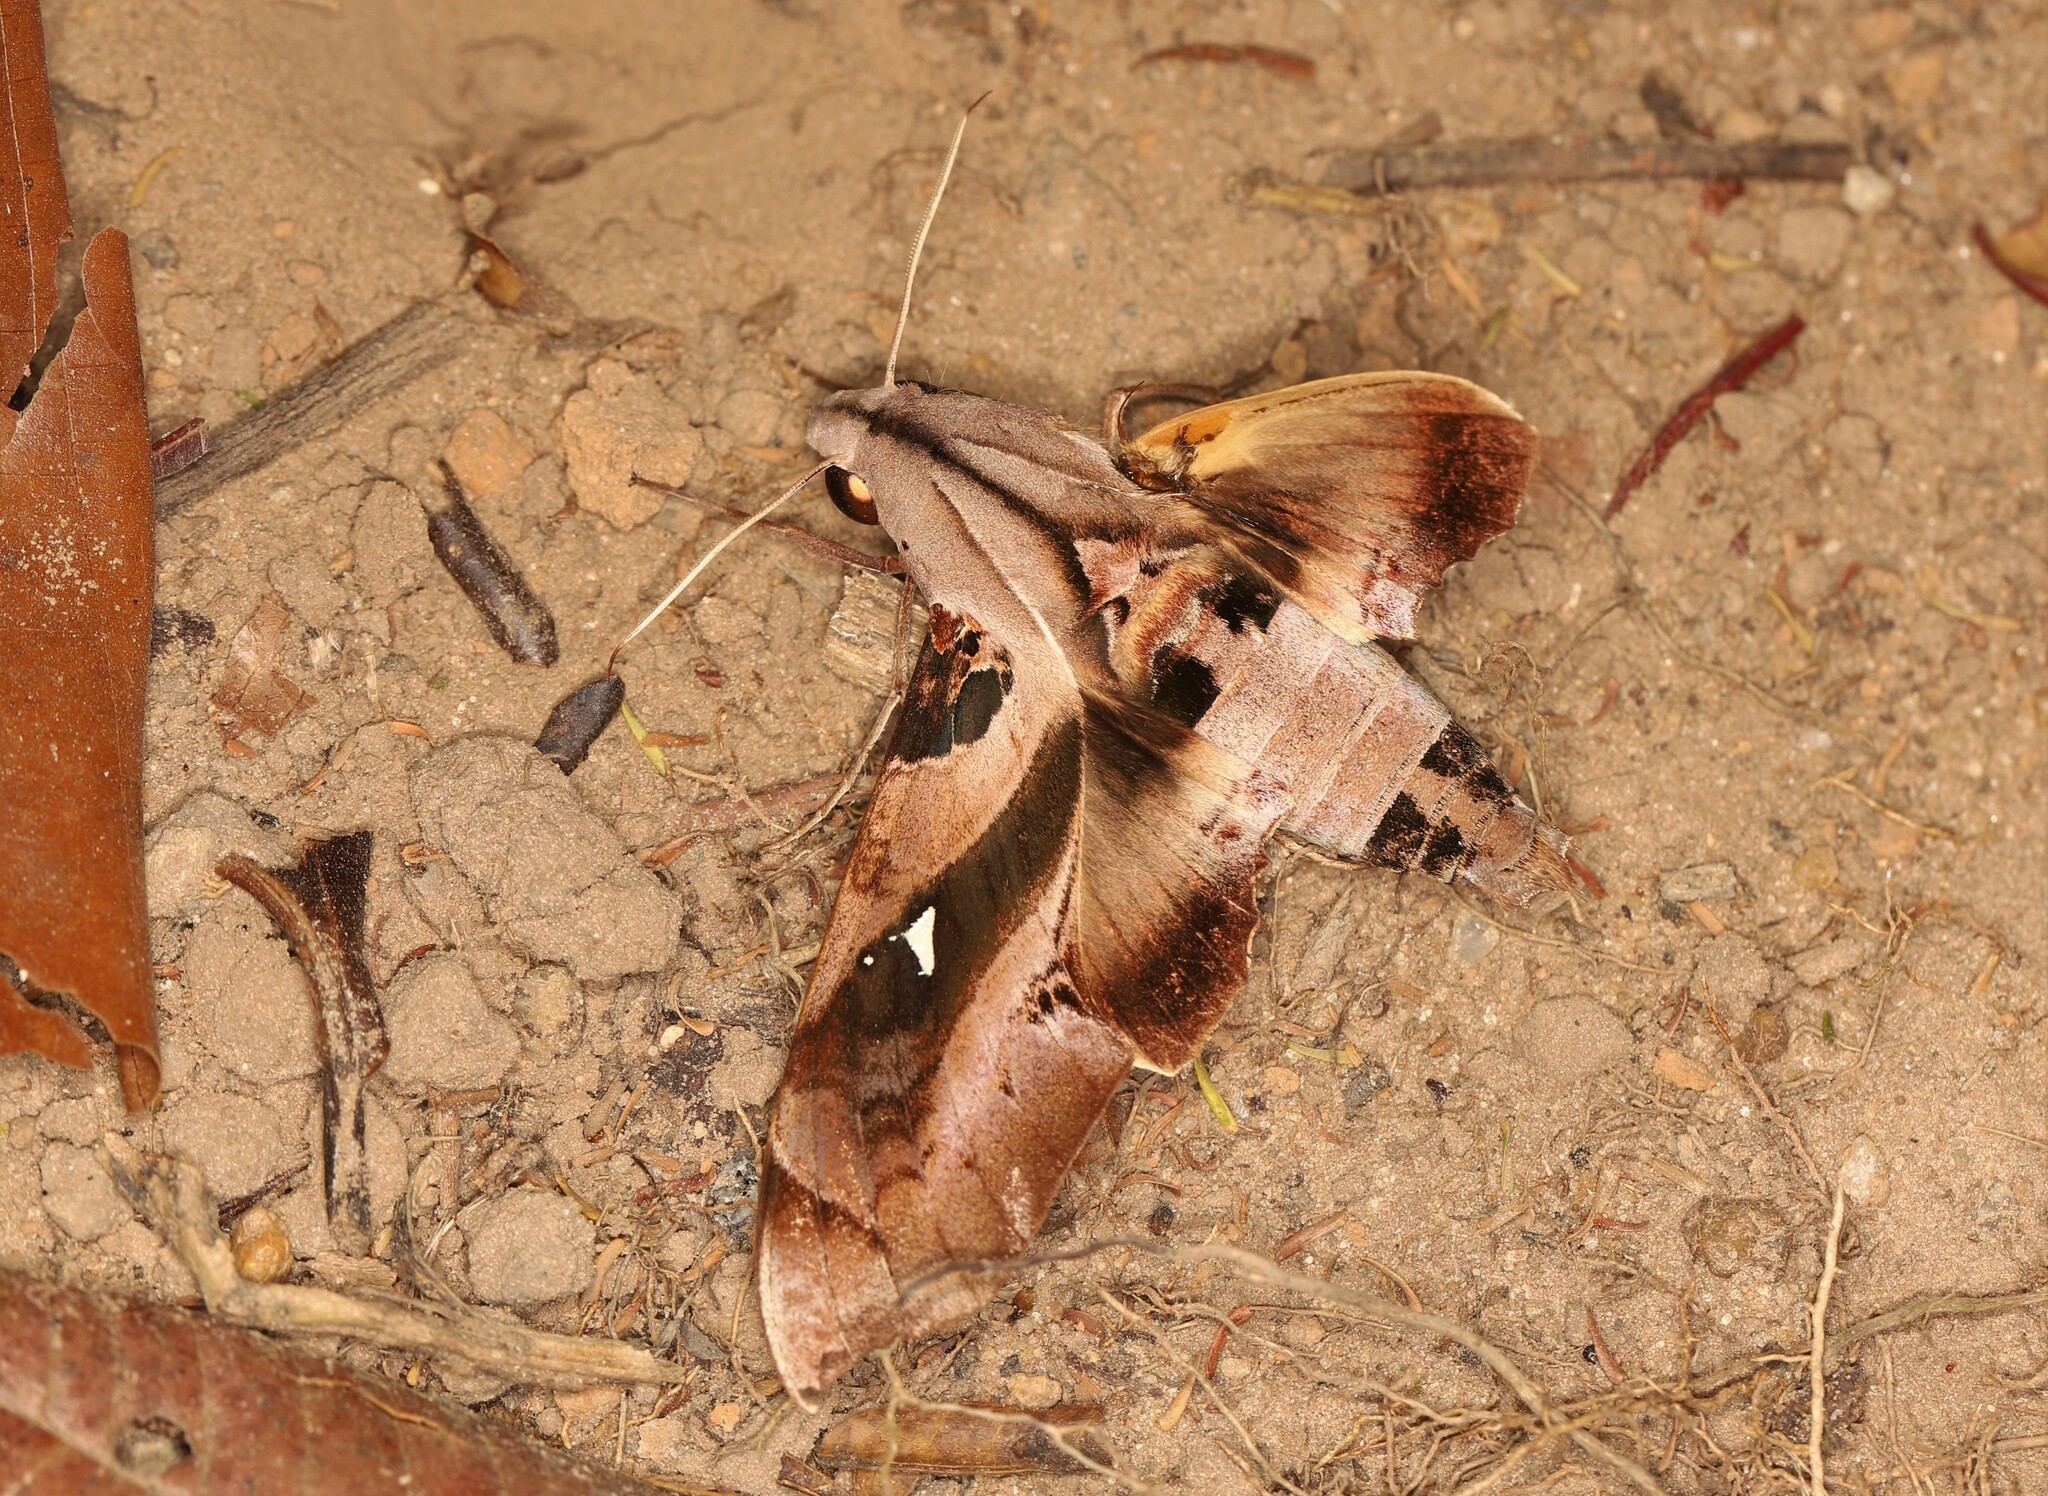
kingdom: Animalia
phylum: Arthropoda
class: Insecta
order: Lepidoptera
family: Sphingidae
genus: Madoryx
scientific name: Madoryx plutonius
